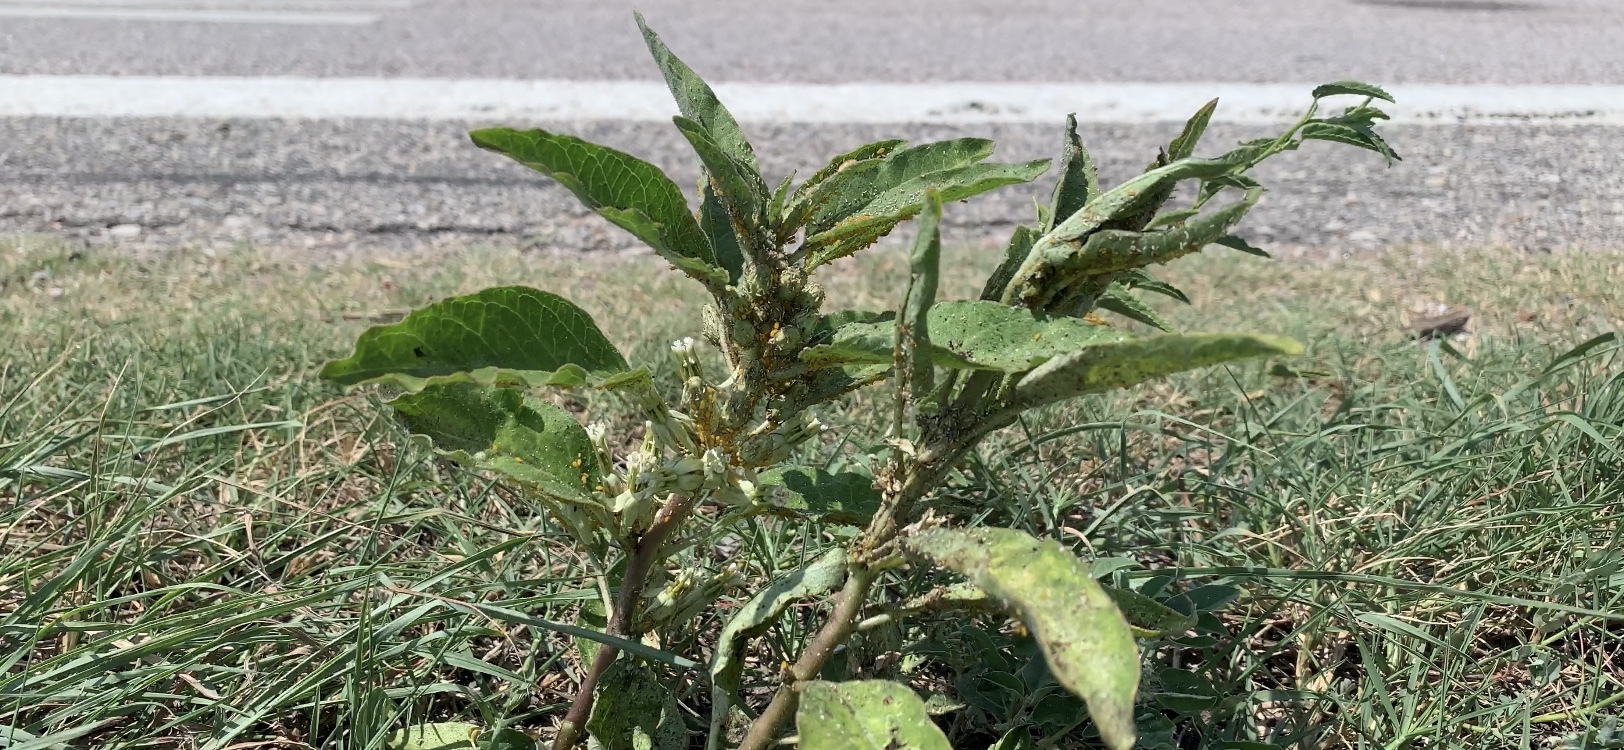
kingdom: Plantae
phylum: Tracheophyta
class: Magnoliopsida
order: Gentianales
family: Apocynaceae
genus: Asclepias
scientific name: Asclepias oenotheroides
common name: Zizotes milkweed
